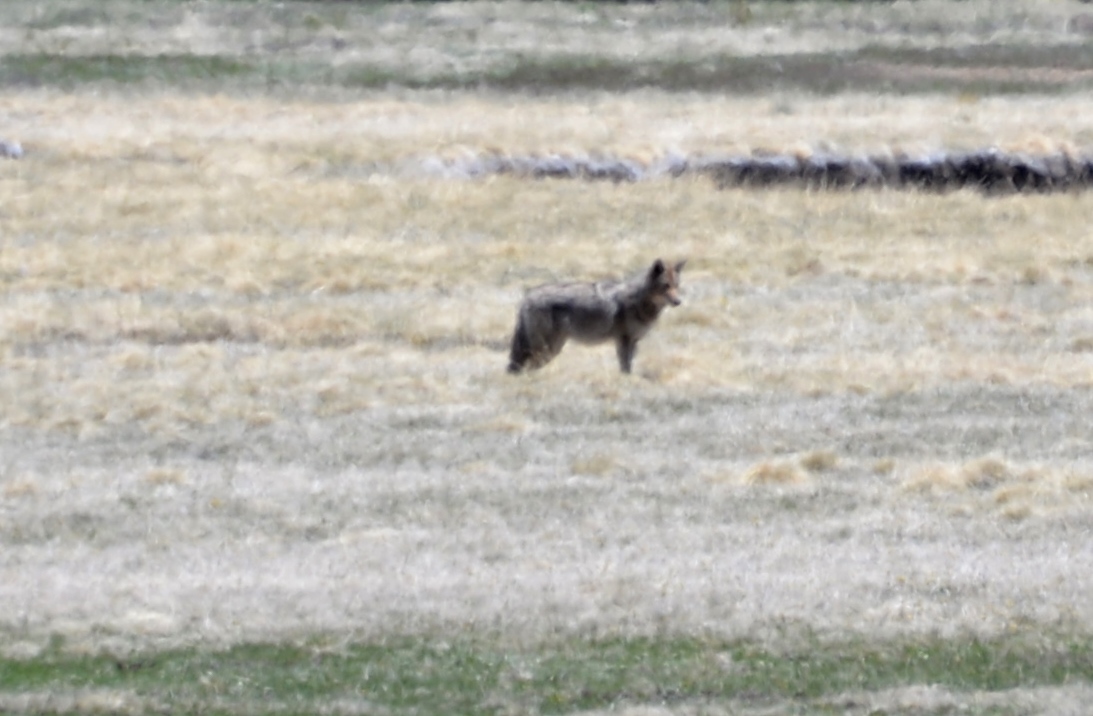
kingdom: Animalia
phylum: Chordata
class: Mammalia
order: Carnivora
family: Canidae
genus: Canis
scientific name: Canis latrans
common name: Coyote
